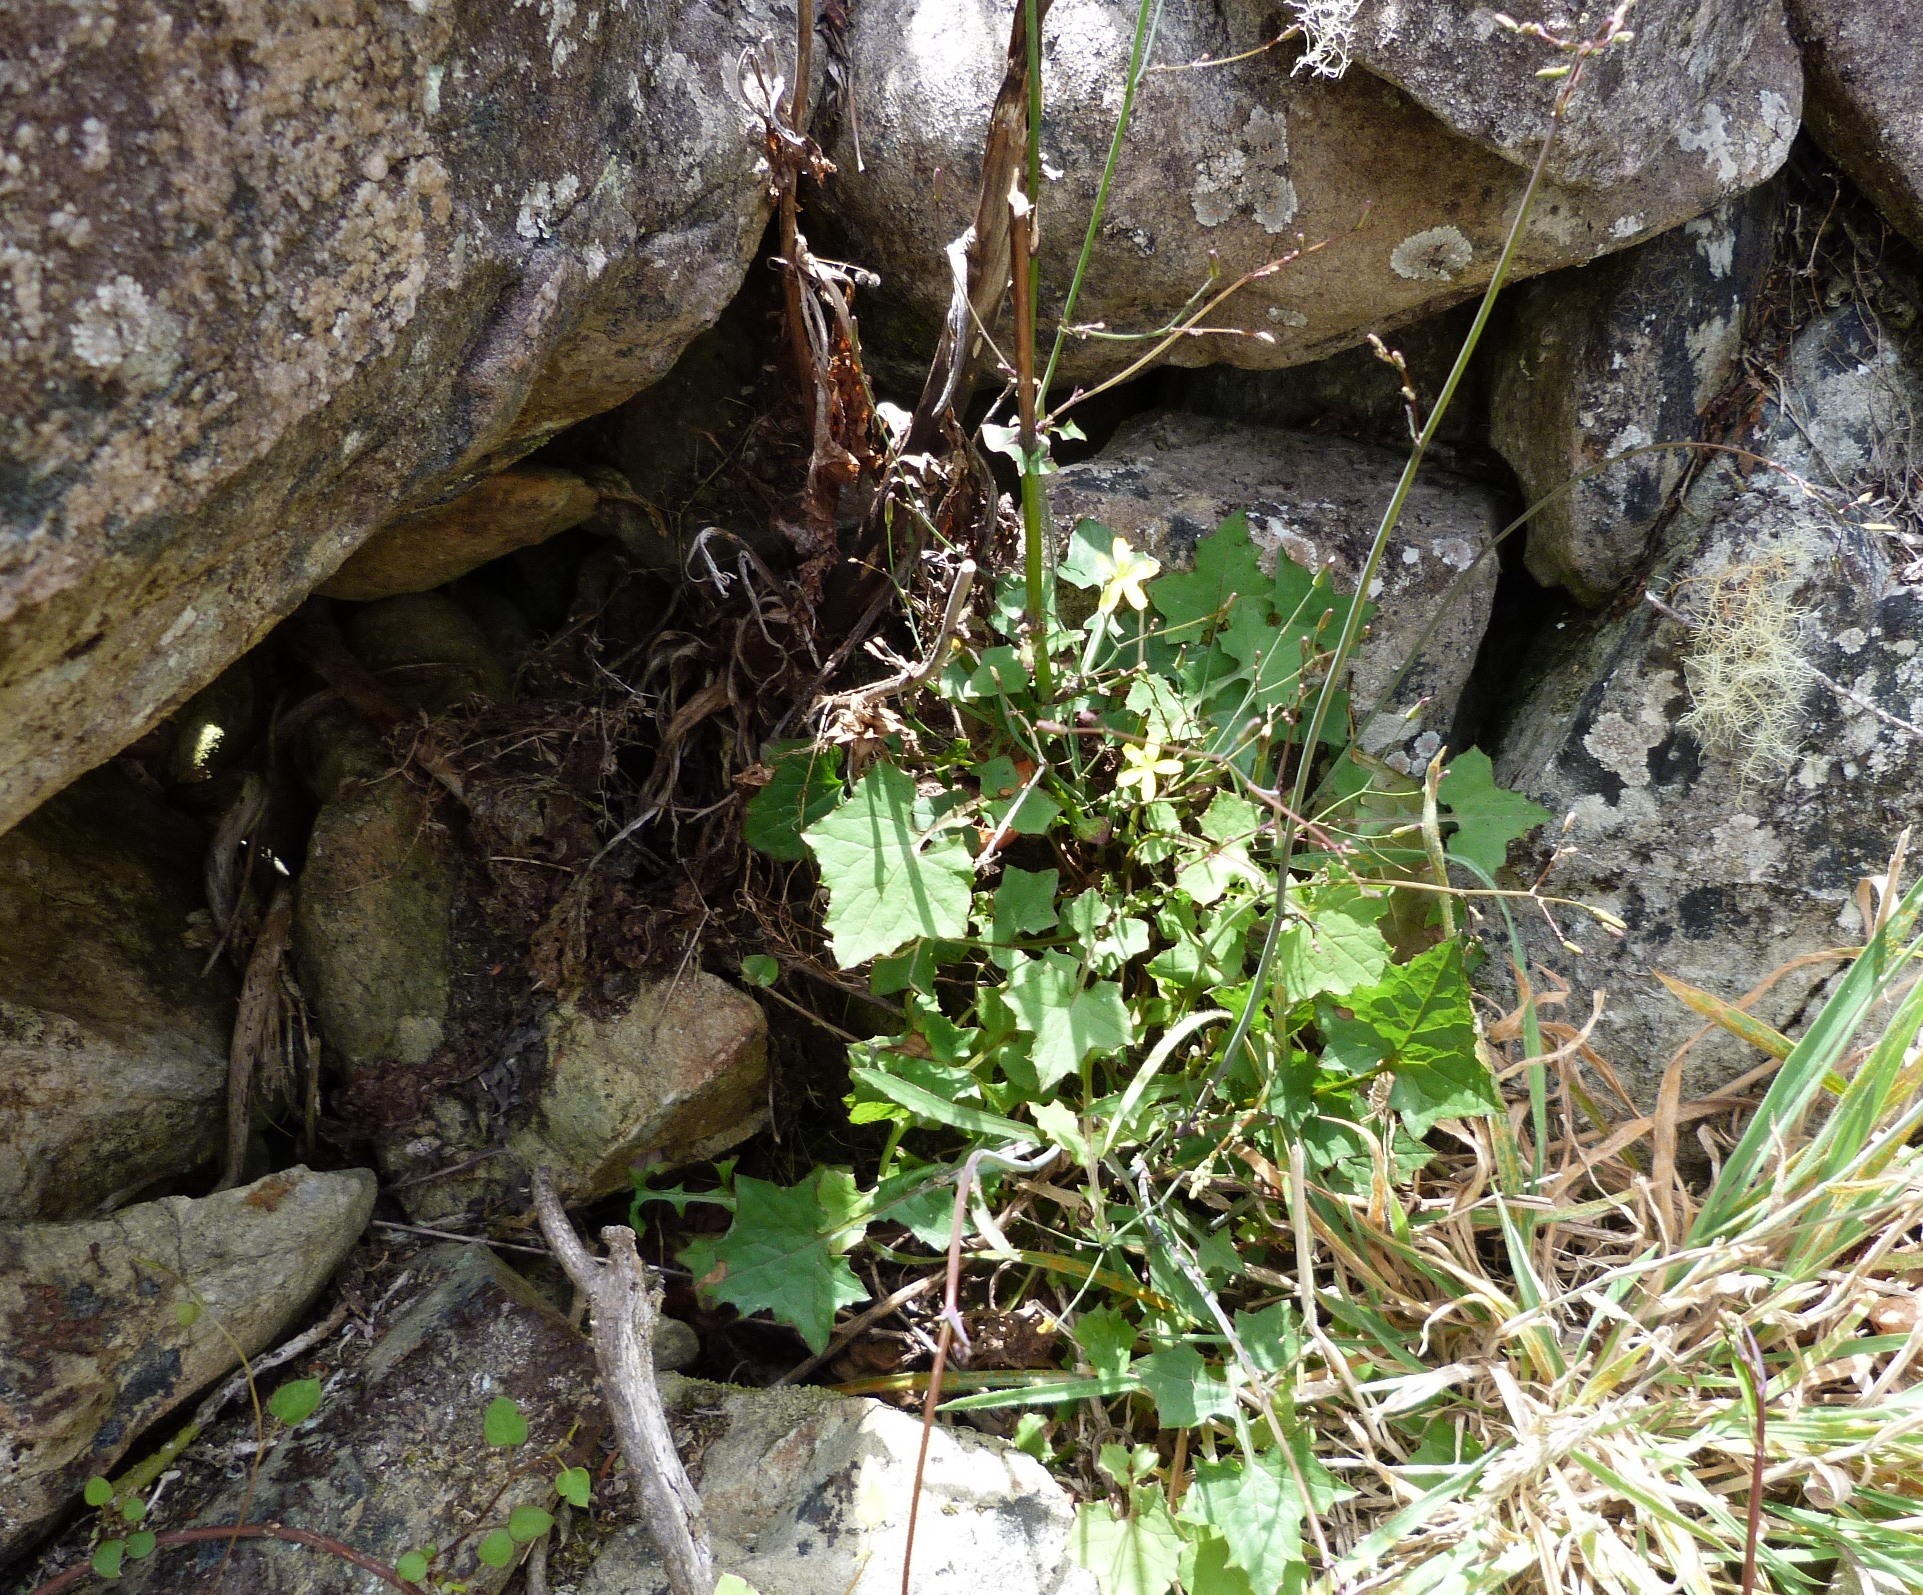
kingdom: Plantae
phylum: Tracheophyta
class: Magnoliopsida
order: Asterales
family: Asteraceae
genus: Mycelis
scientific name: Mycelis muralis
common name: Wall lettuce
